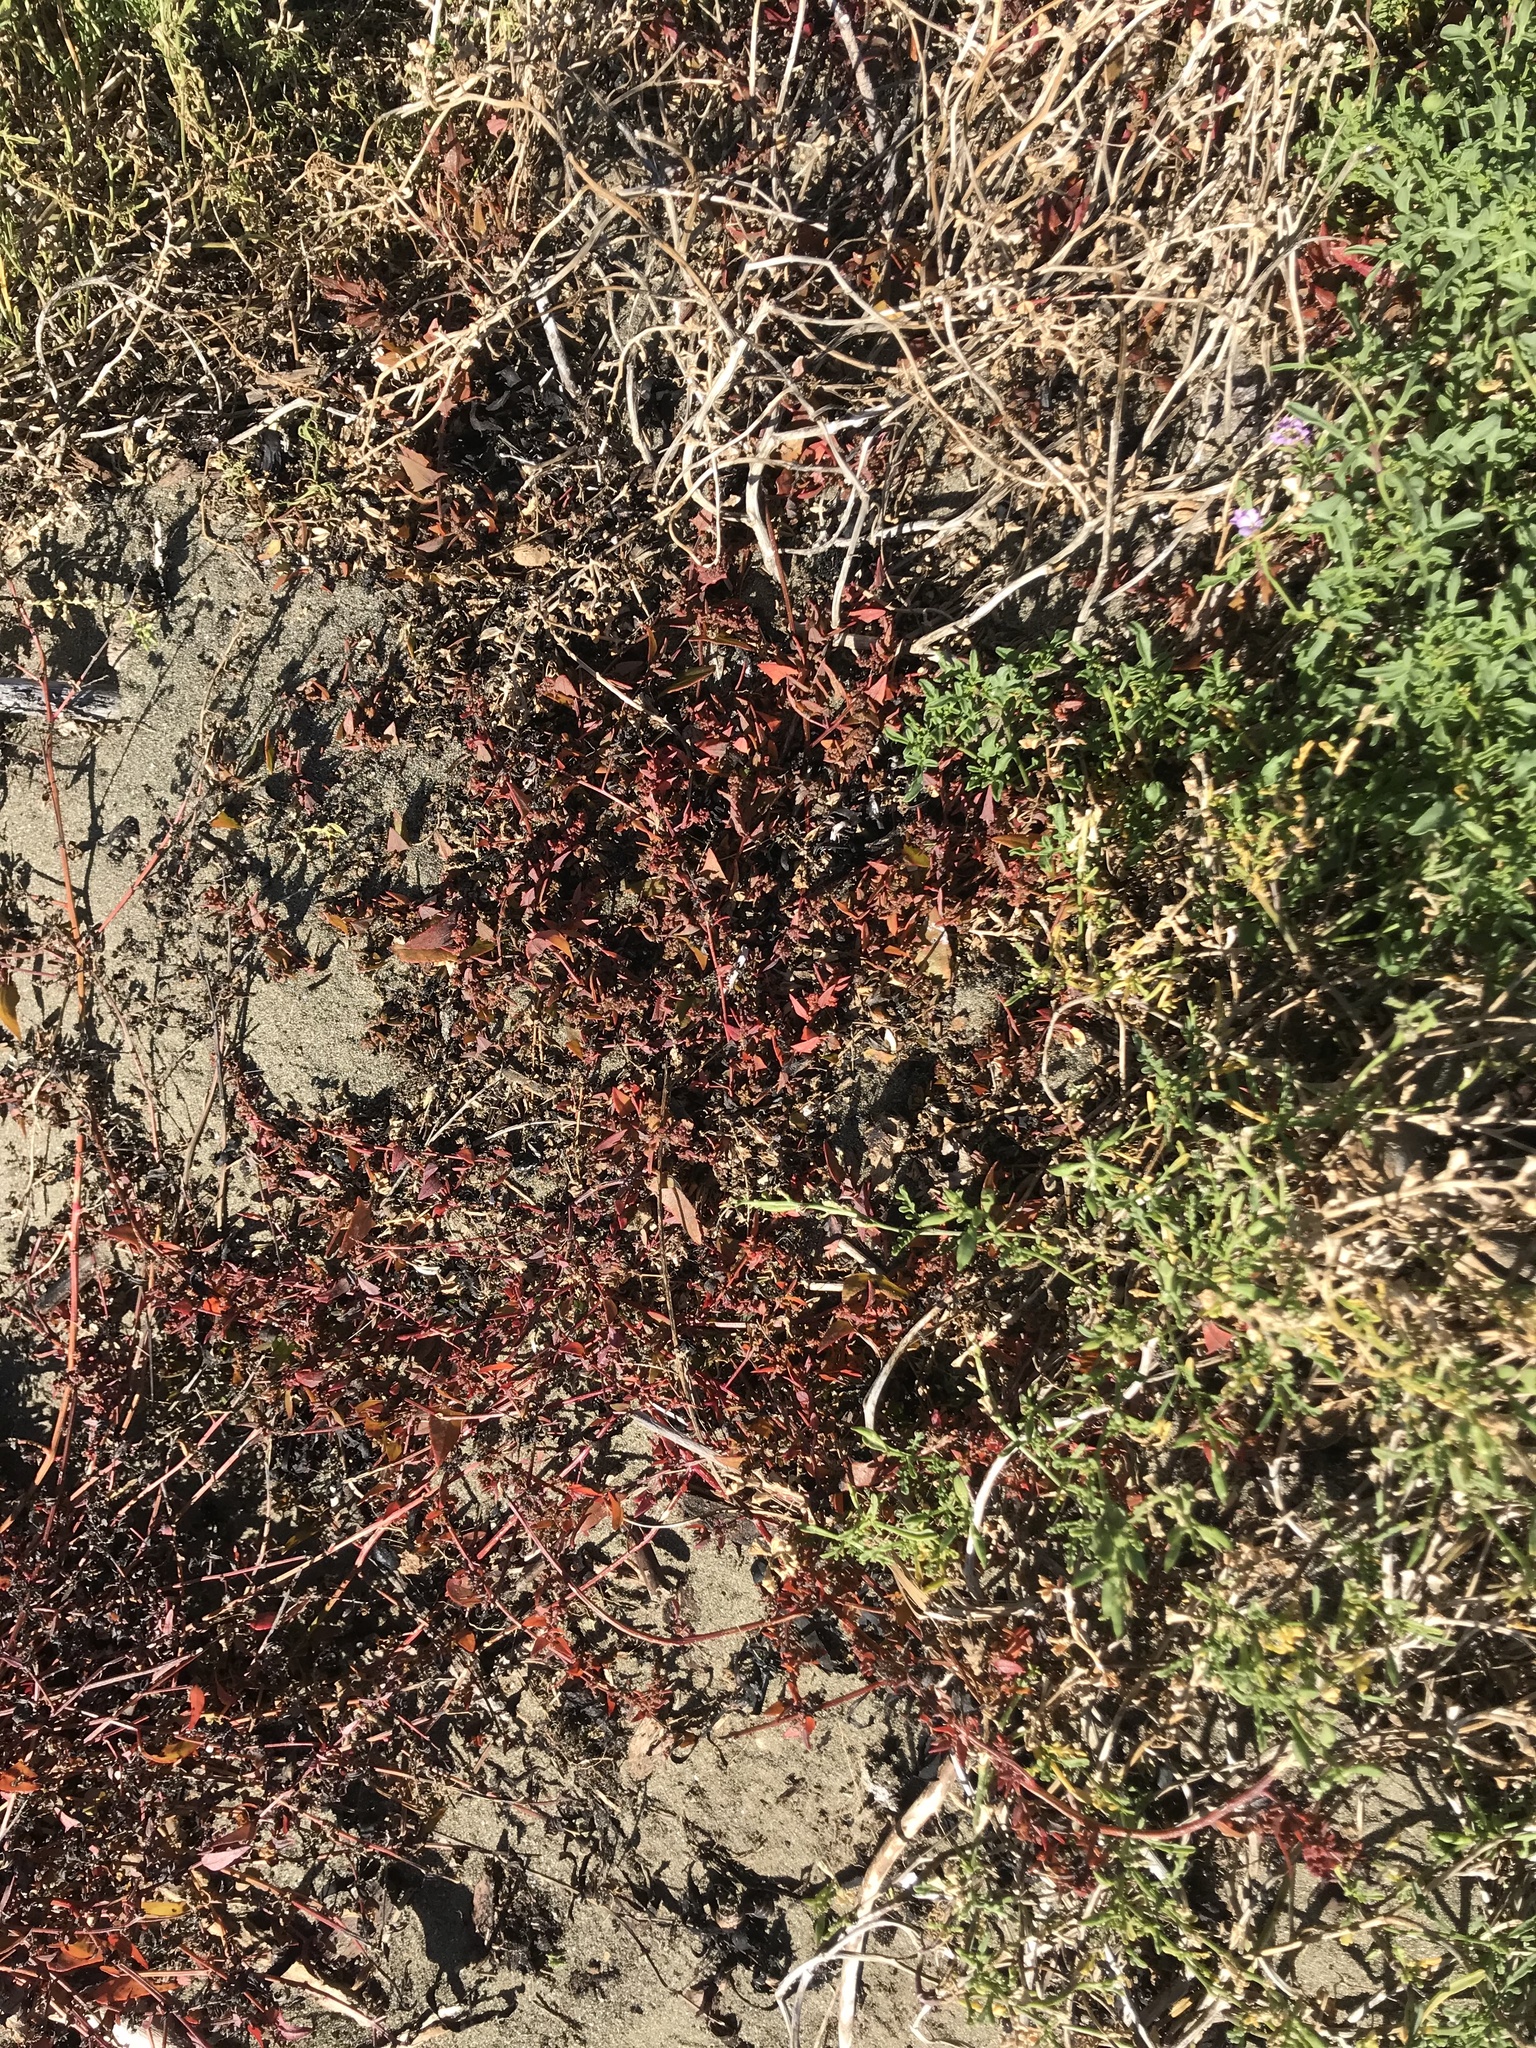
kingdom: Plantae
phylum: Tracheophyta
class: Magnoliopsida
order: Caryophyllales
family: Amaranthaceae
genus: Atriplex
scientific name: Atriplex prostrata
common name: Spear-leaved orache
